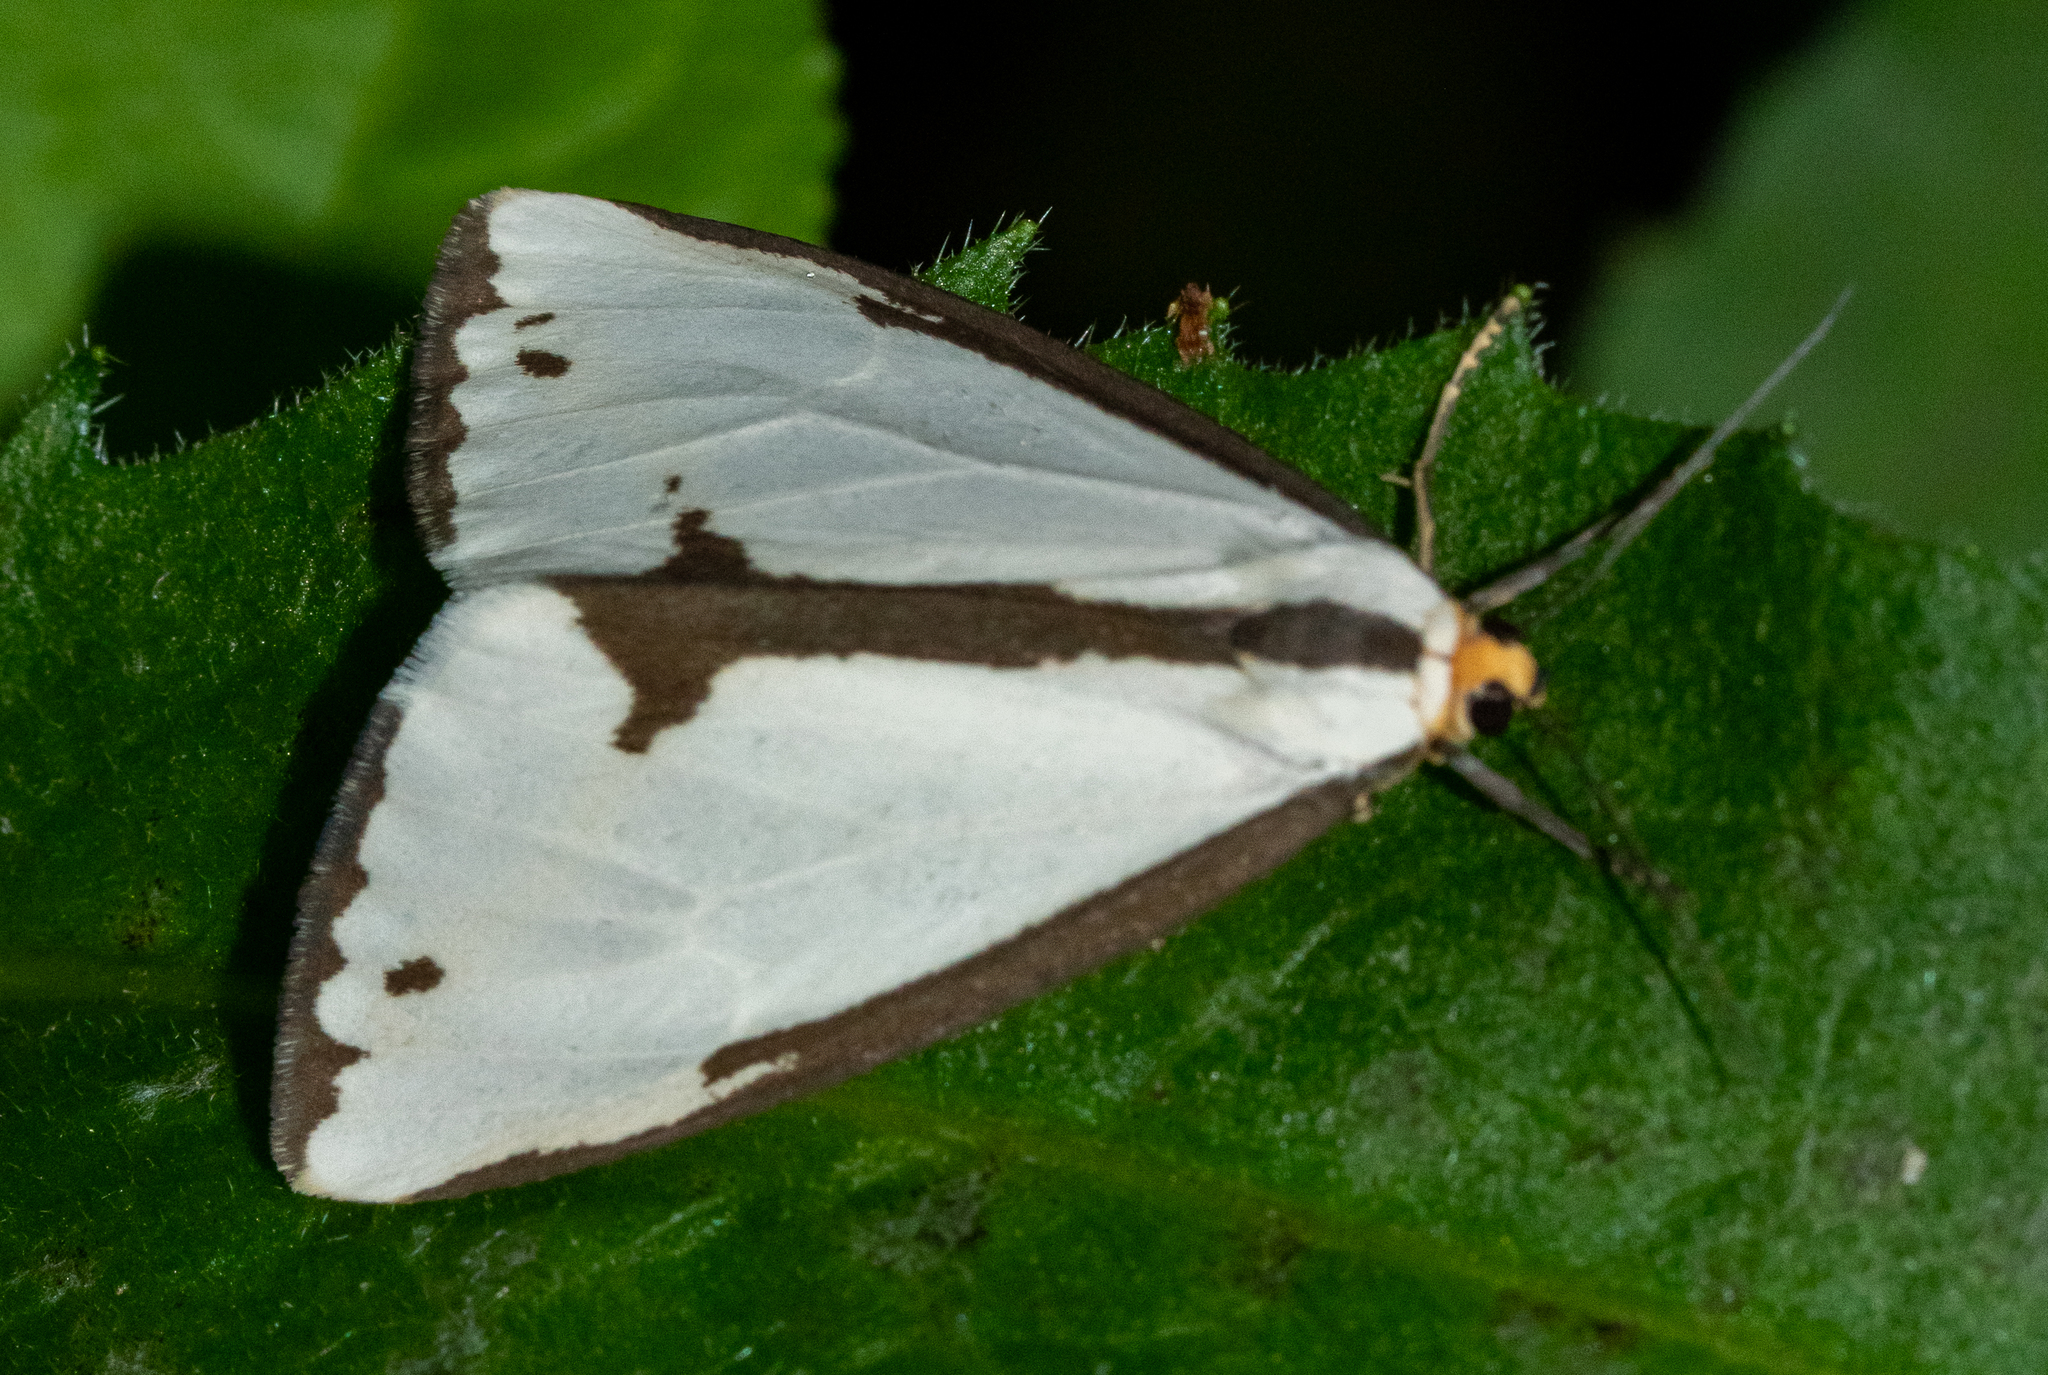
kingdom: Animalia
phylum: Arthropoda
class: Insecta
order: Lepidoptera
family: Erebidae
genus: Haploa
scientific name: Haploa lecontei
